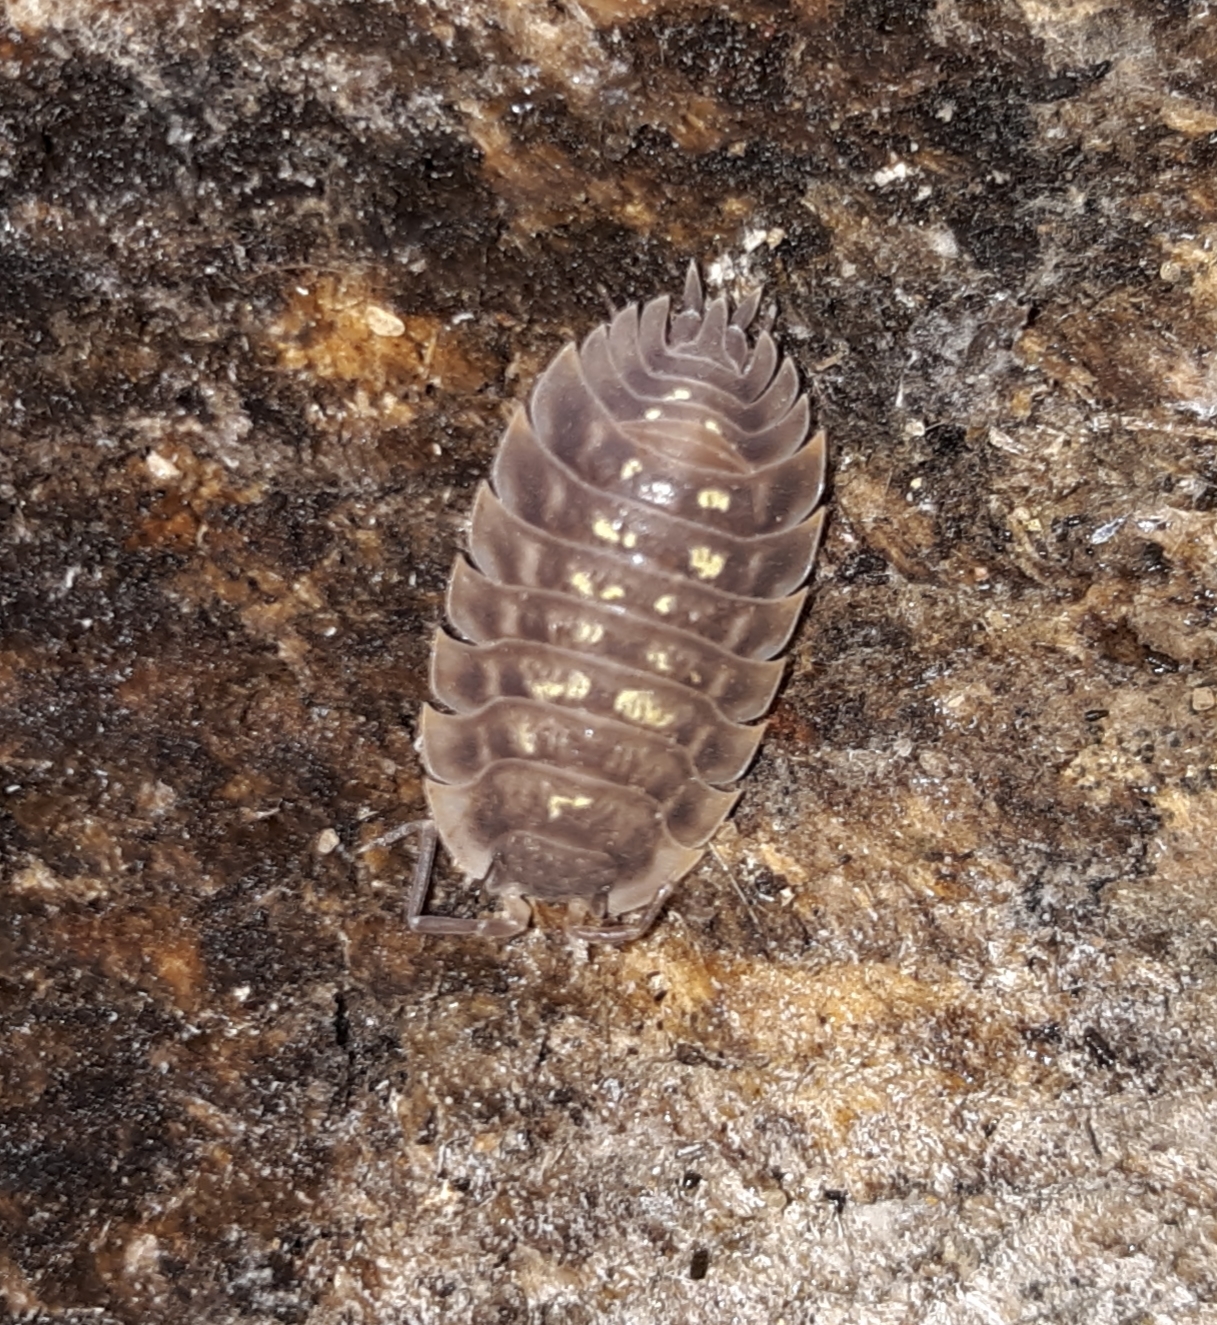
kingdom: Animalia
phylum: Arthropoda
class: Malacostraca
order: Isopoda
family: Oniscidae
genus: Oniscus
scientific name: Oniscus asellus
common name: Common shiny woodlouse
